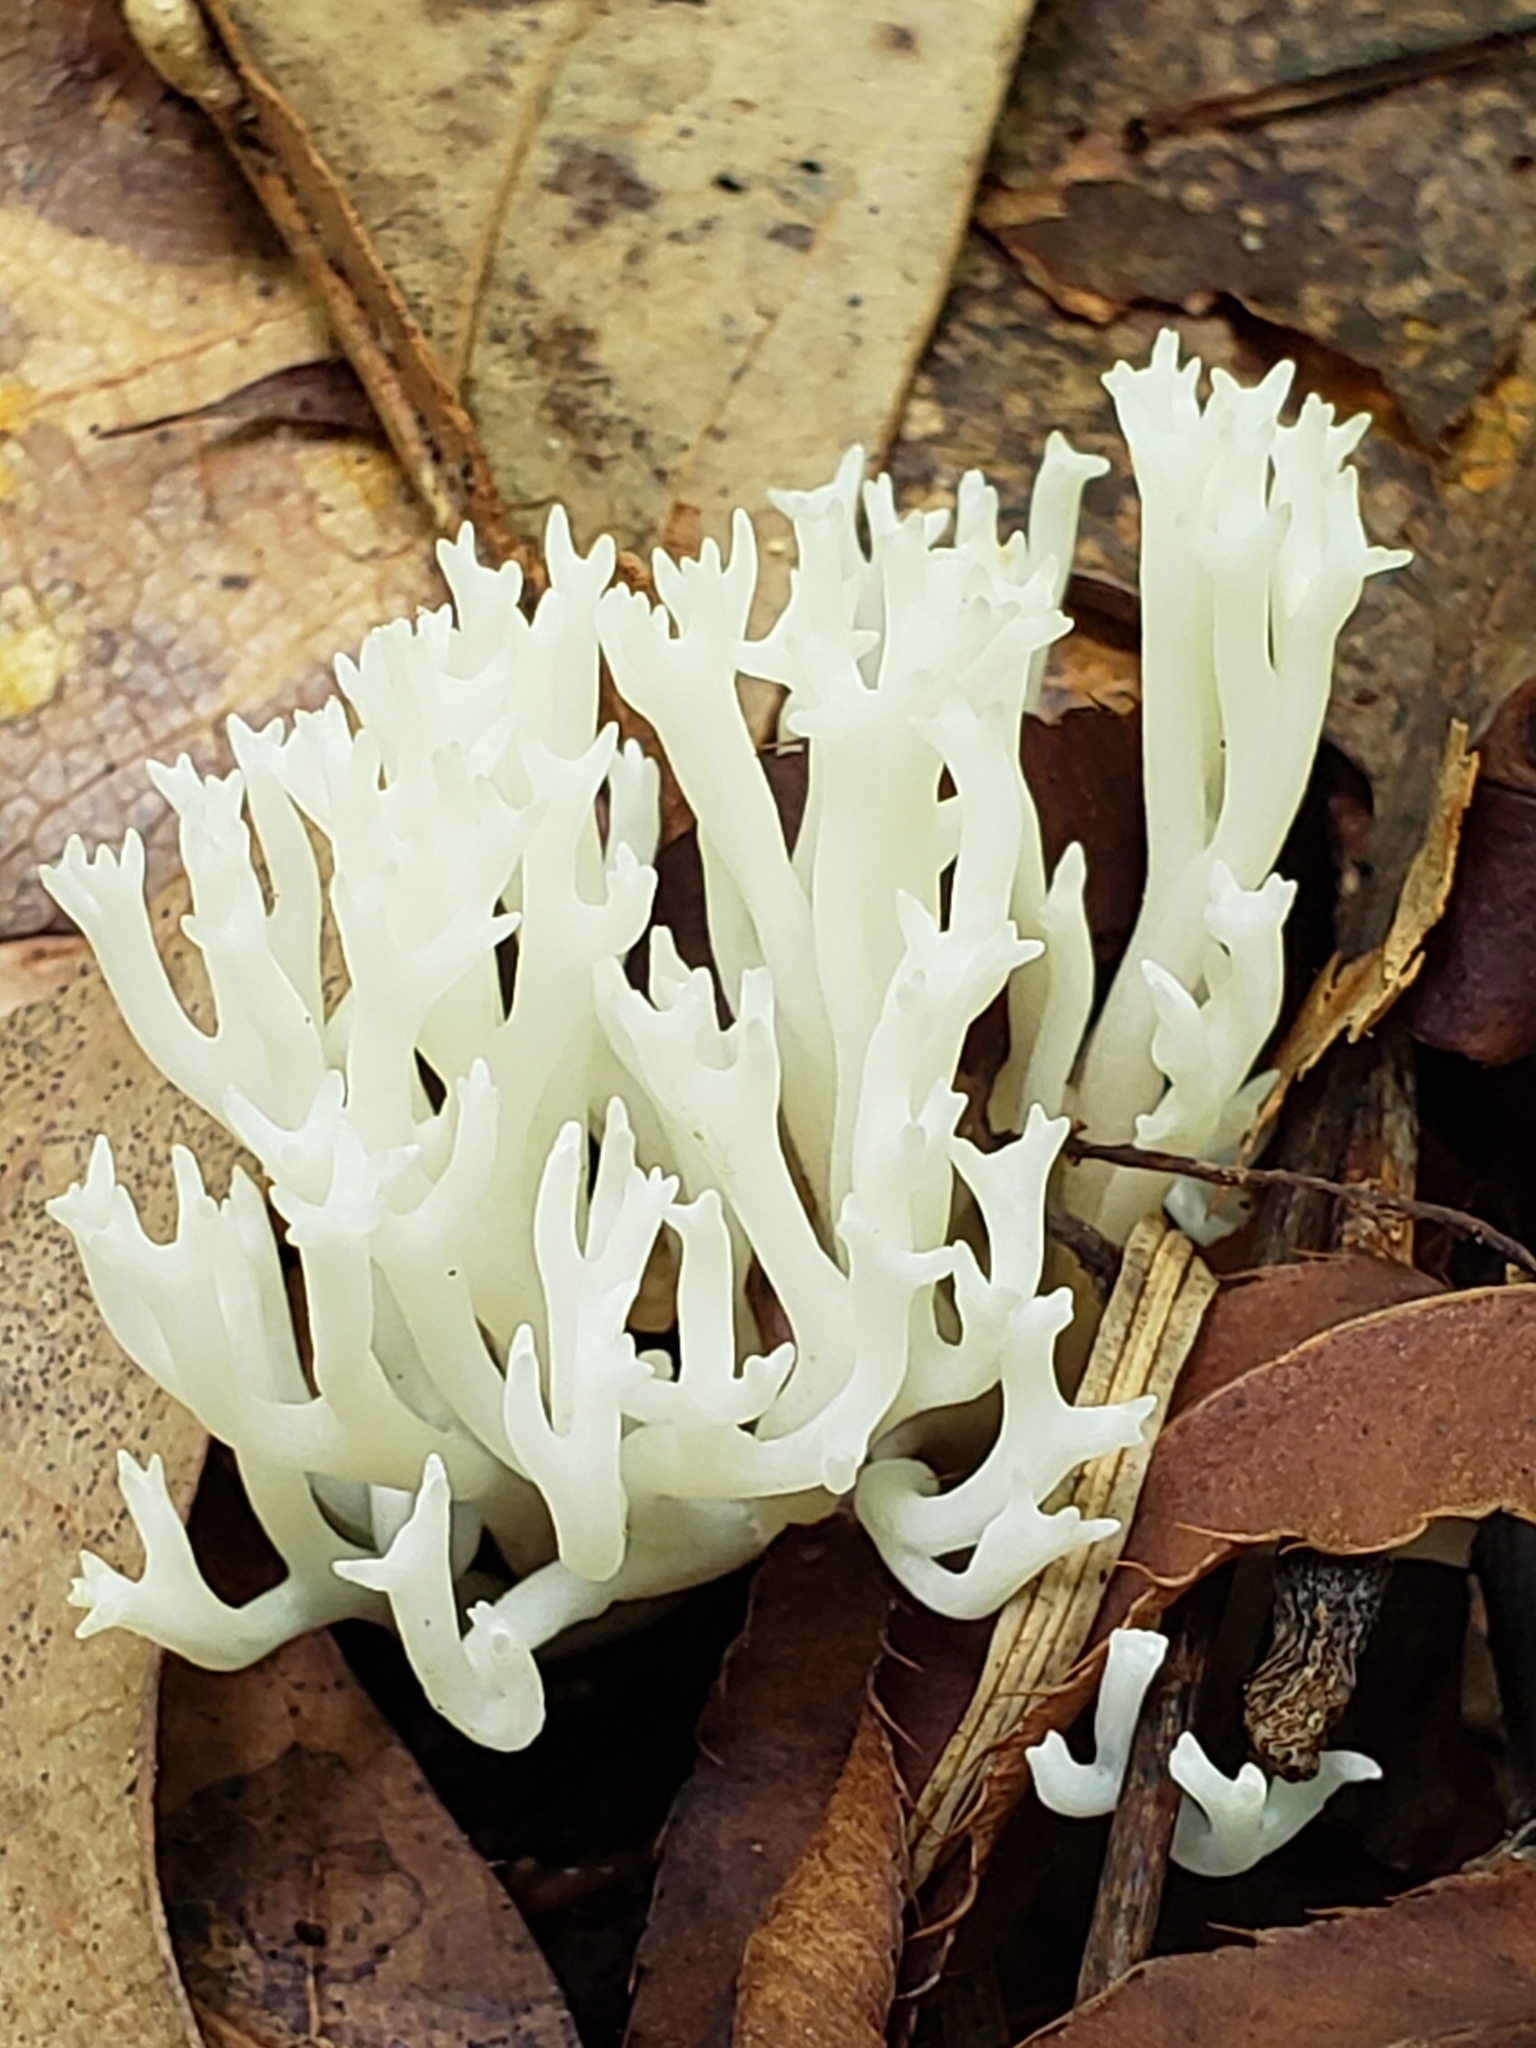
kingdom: Fungi
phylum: Basidiomycota
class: Agaricomycetes
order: Agaricales
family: Clavariaceae
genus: Ramariopsis
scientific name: Ramariopsis kunzei
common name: Ivory coral
